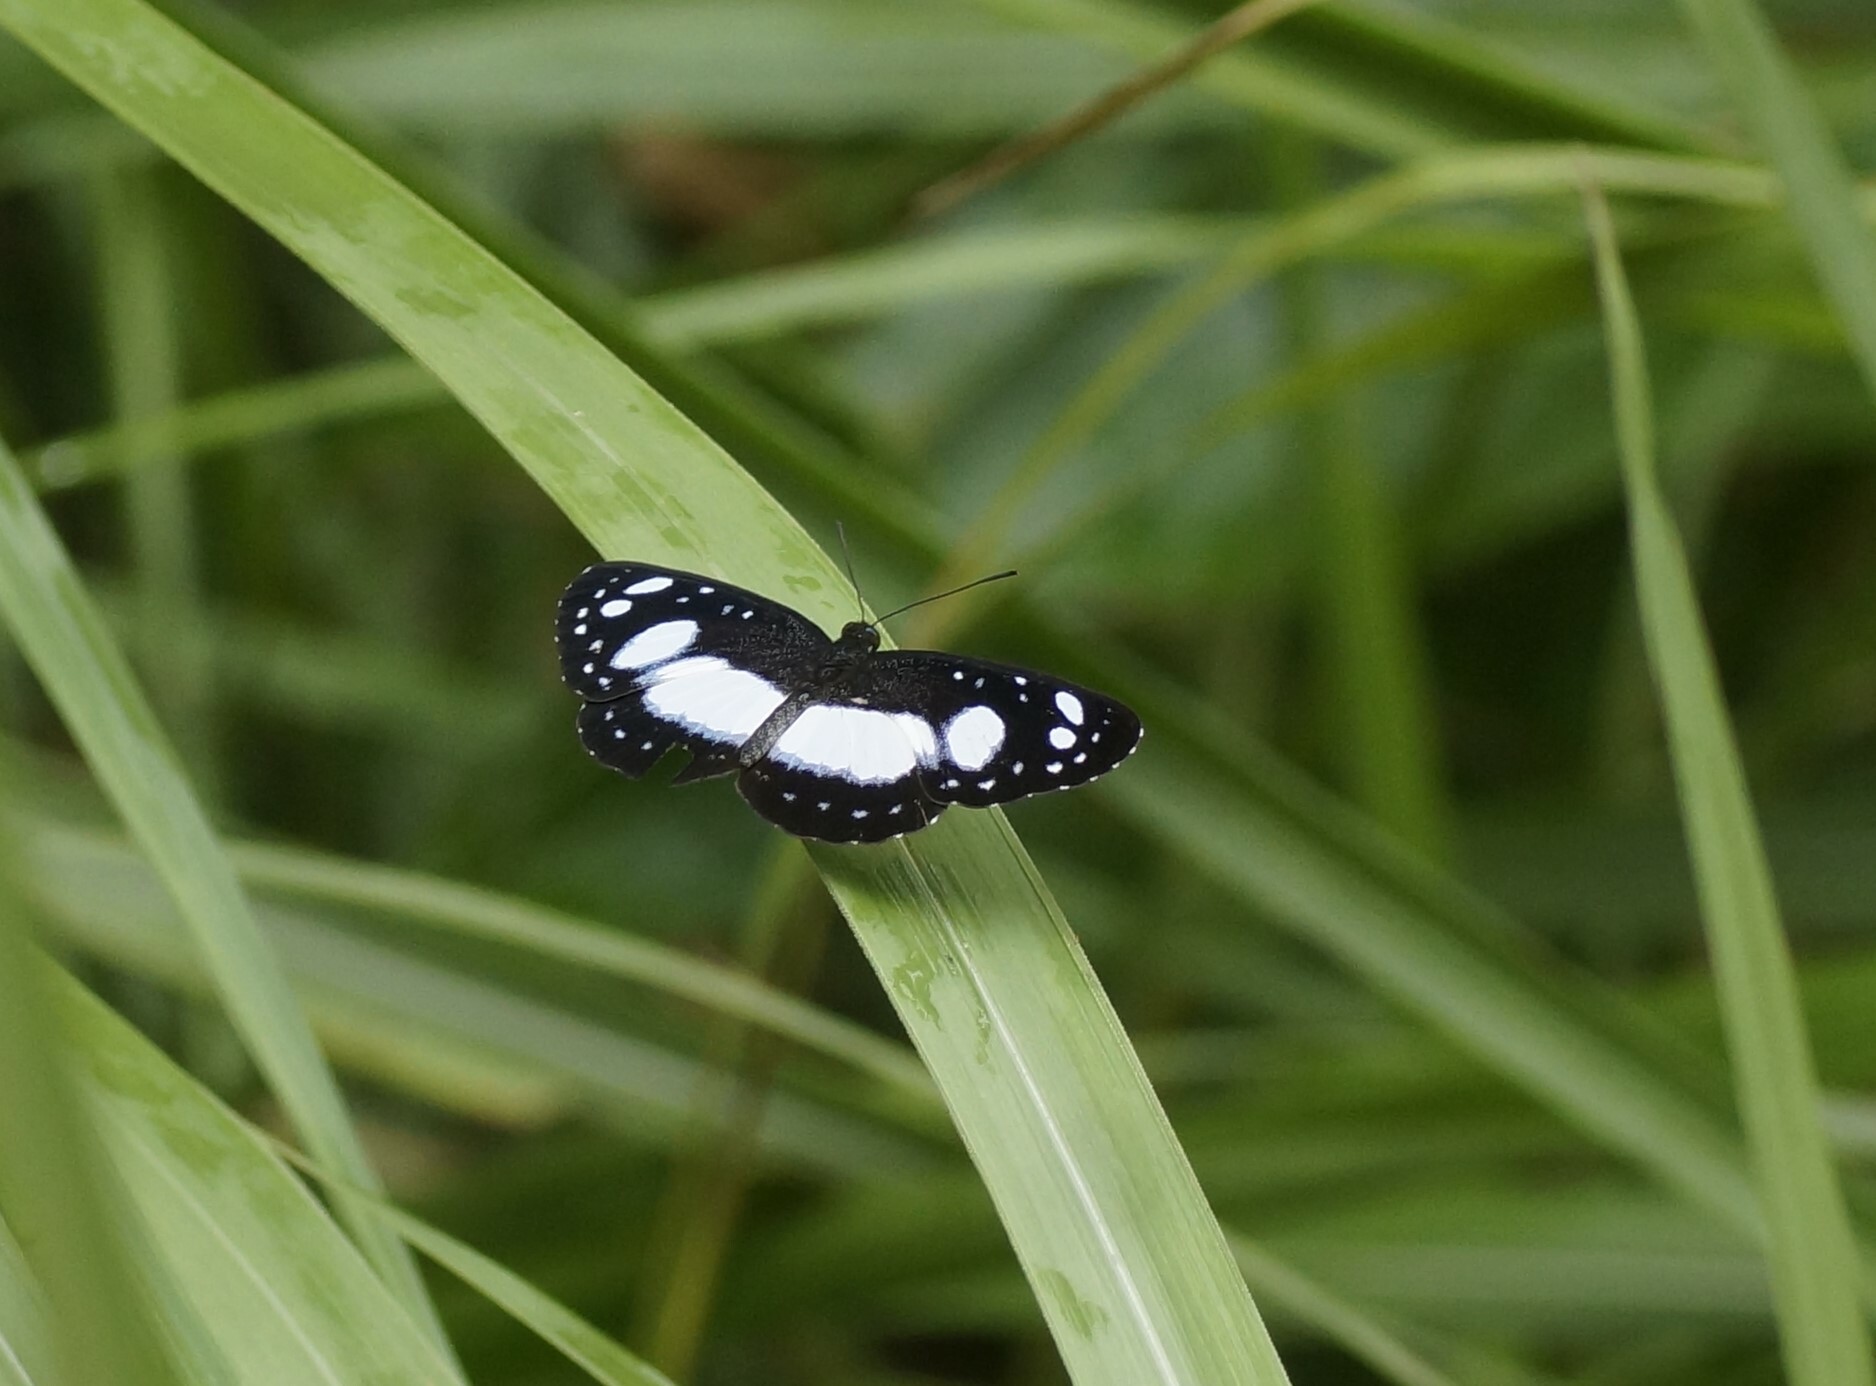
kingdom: Animalia
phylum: Arthropoda
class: Insecta
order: Lepidoptera
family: Nymphalidae
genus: Pantoporia
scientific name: Pantoporia venilia
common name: Cape york aeroplane
